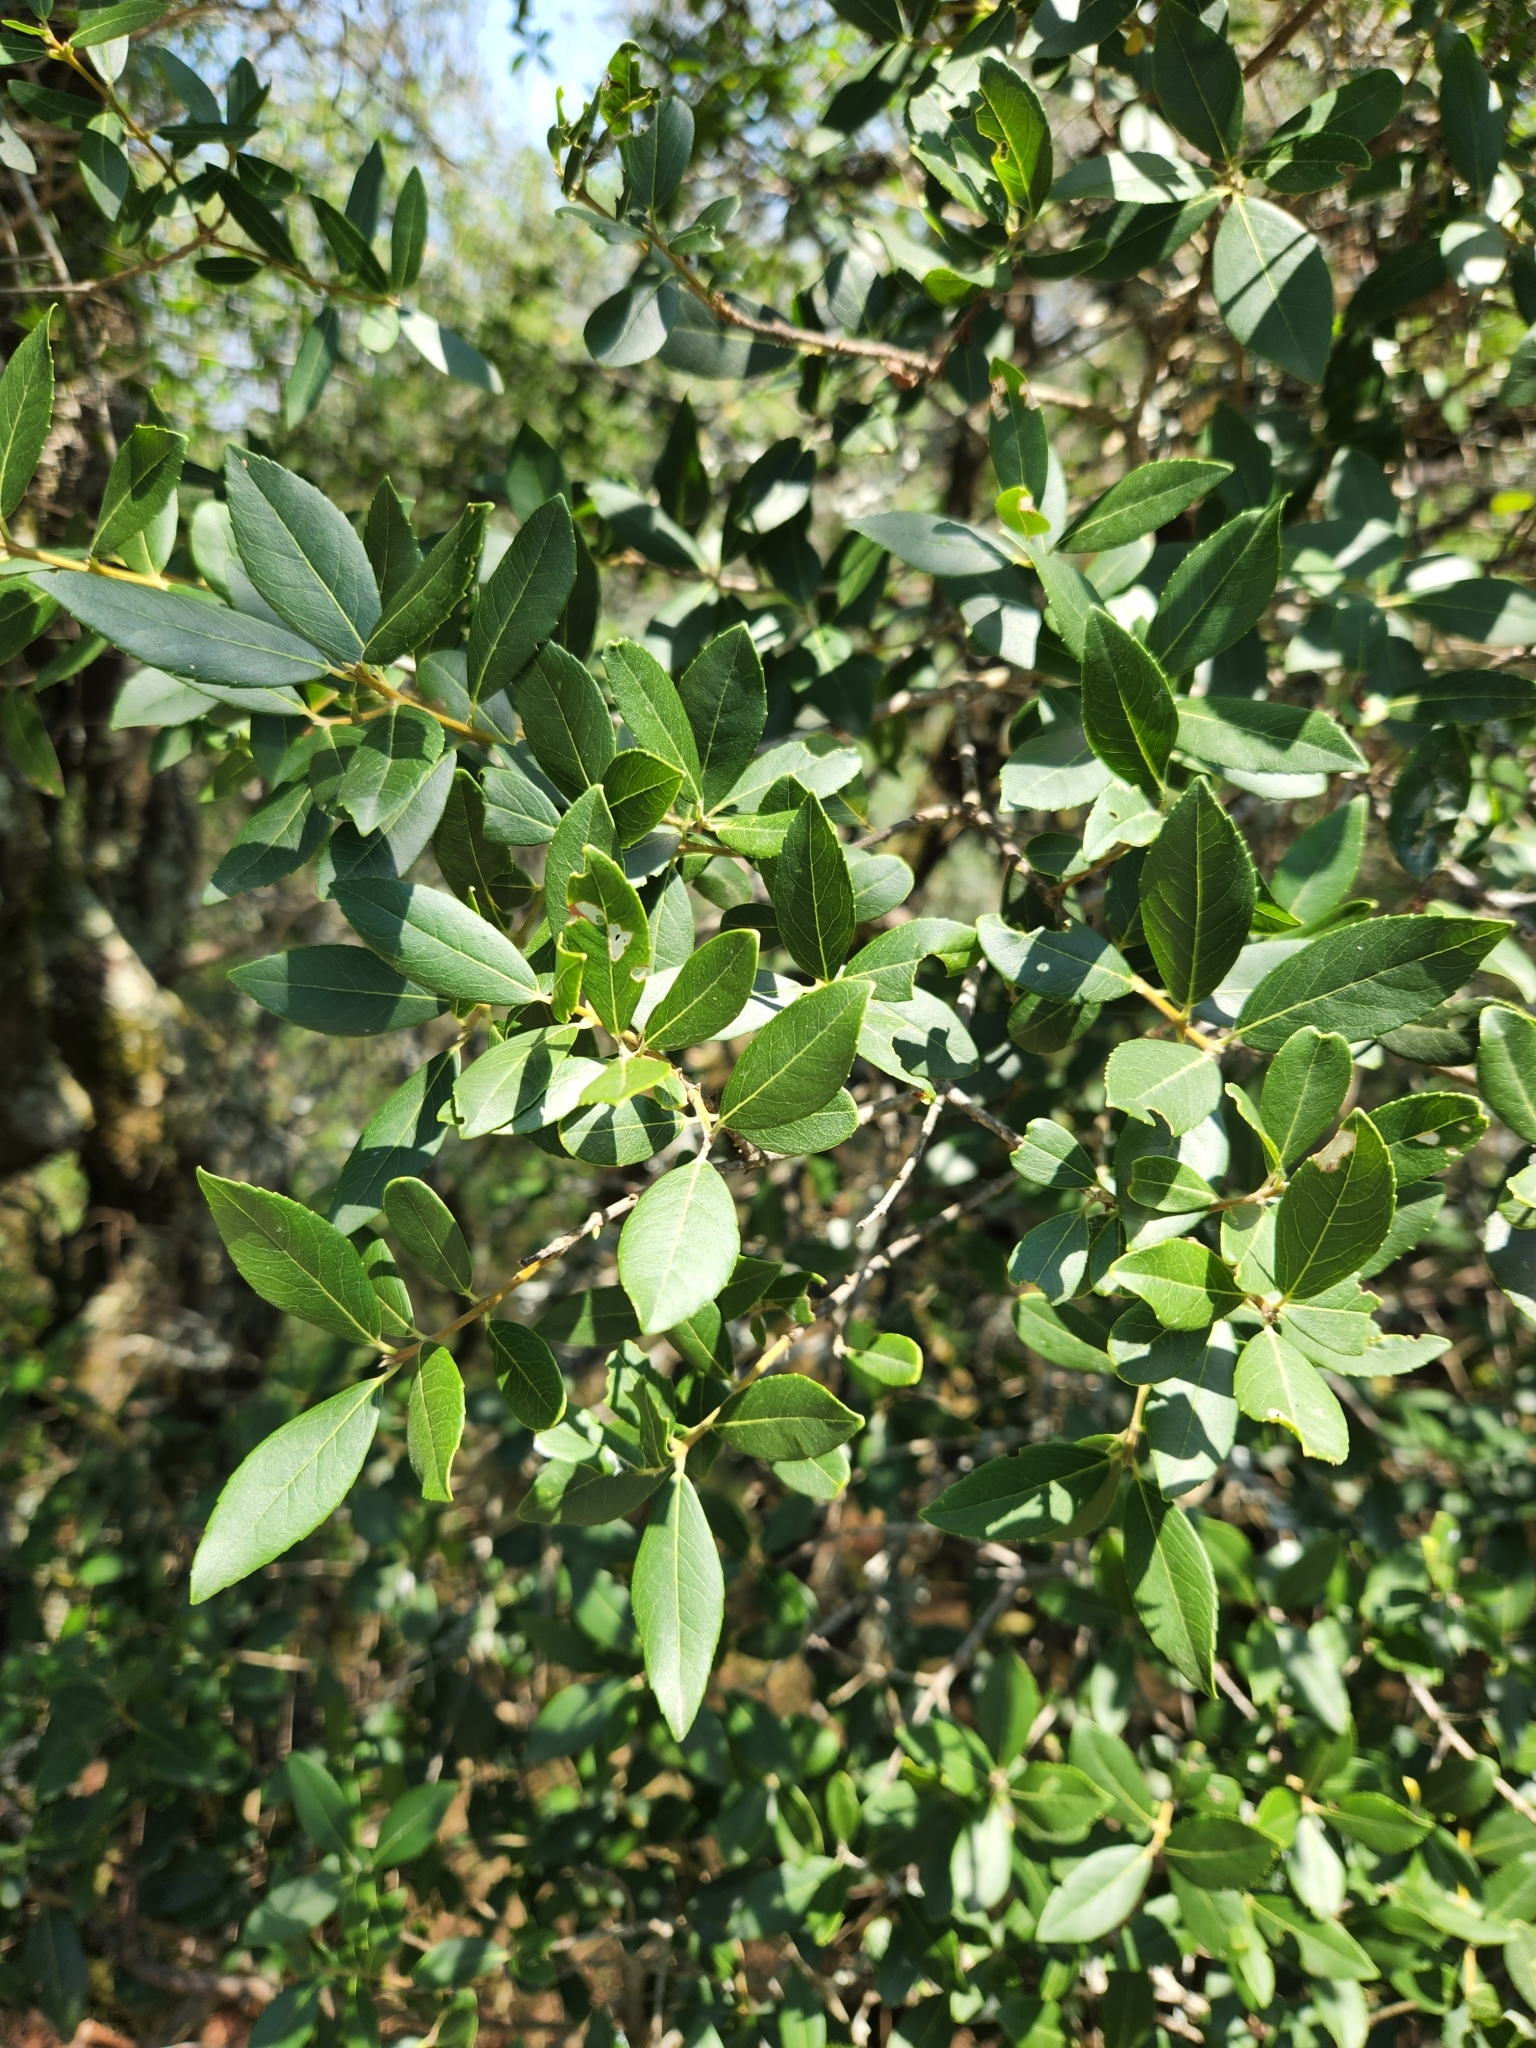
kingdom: Plantae
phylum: Tracheophyta
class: Magnoliopsida
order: Lamiales
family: Oleaceae
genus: Phillyrea
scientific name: Phillyrea latifolia
